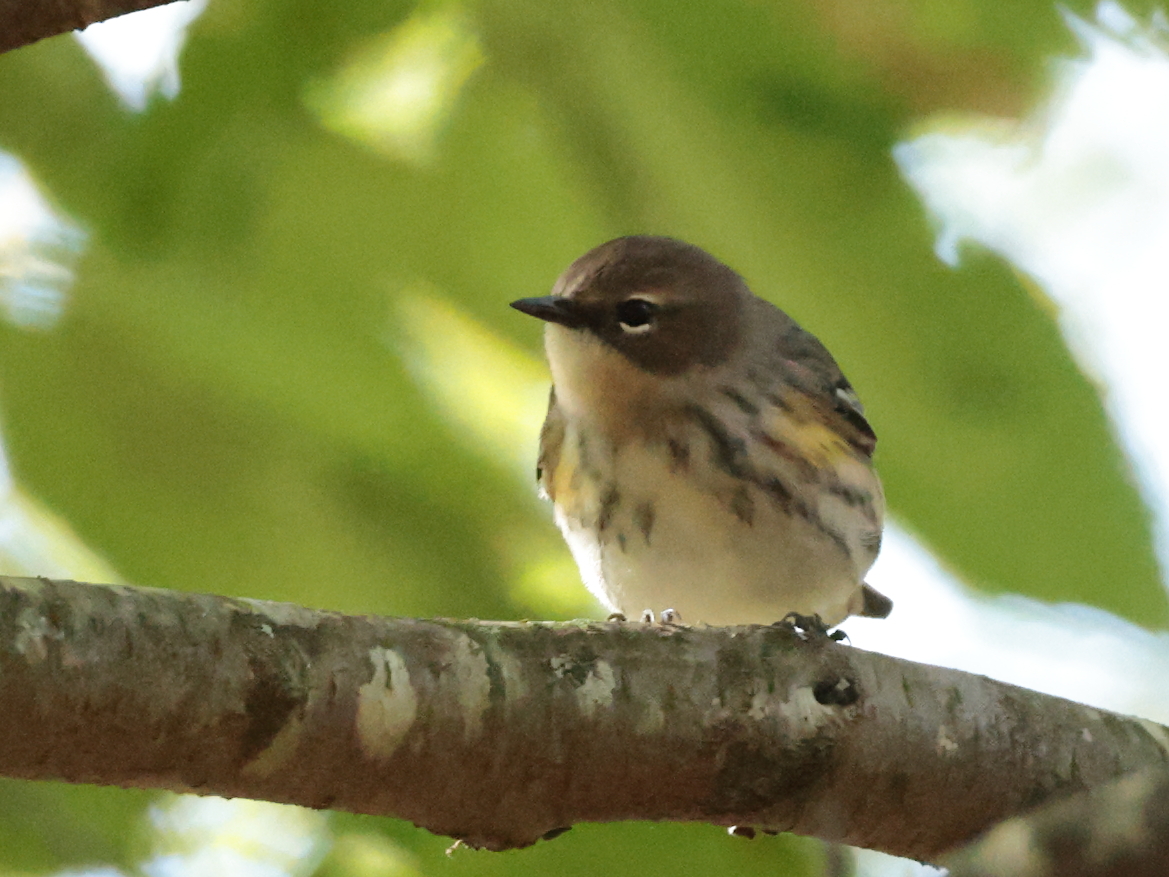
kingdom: Animalia
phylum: Chordata
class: Aves
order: Passeriformes
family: Parulidae
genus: Setophaga
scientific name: Setophaga coronata
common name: Myrtle warbler
